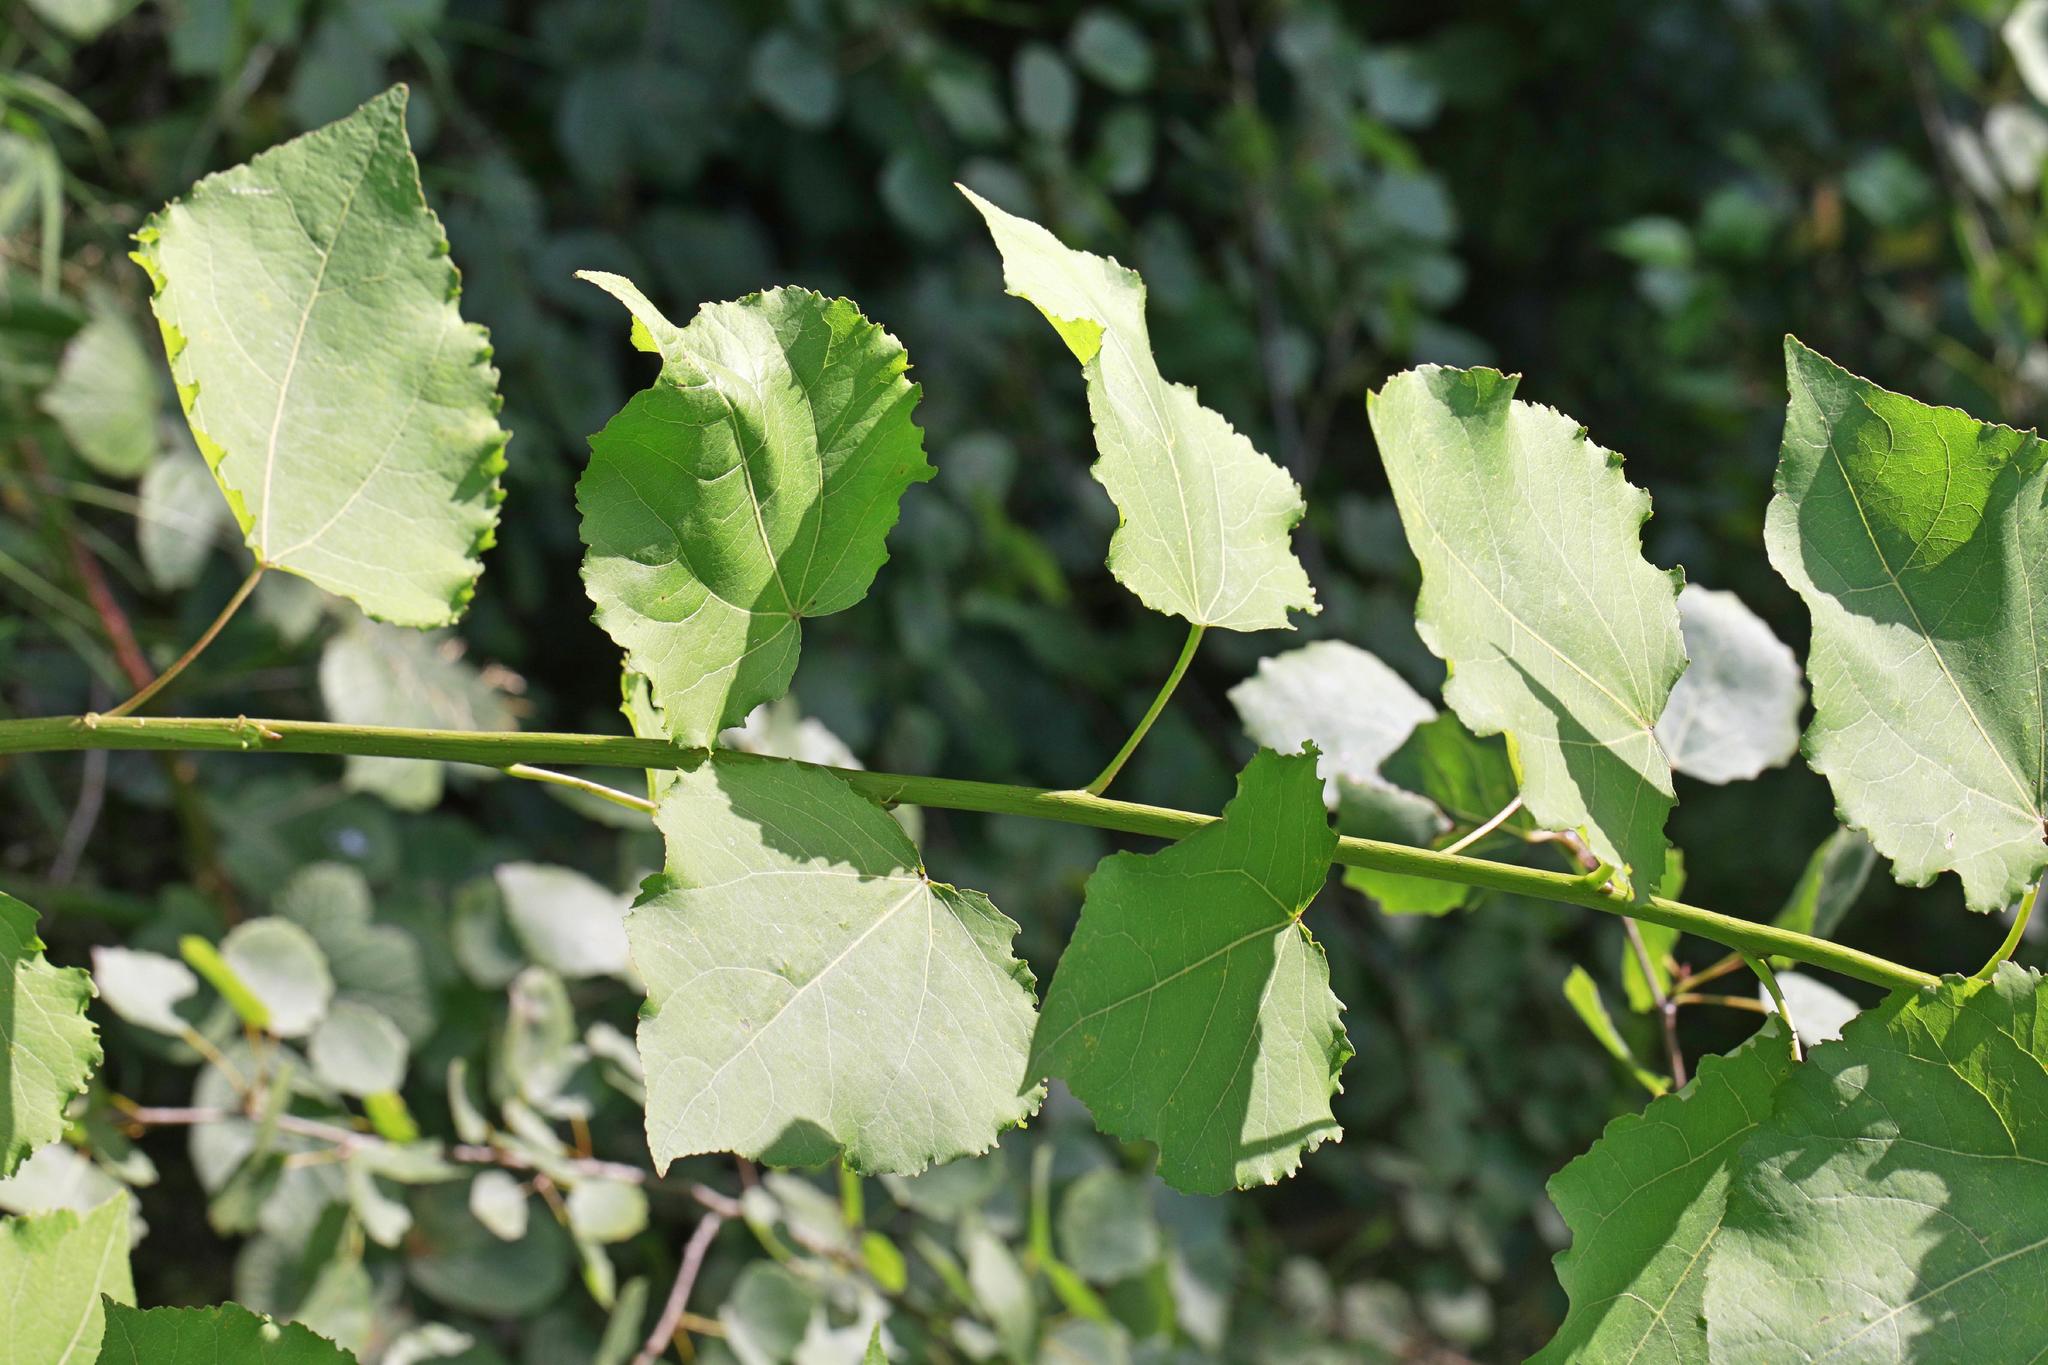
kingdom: Plantae
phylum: Tracheophyta
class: Magnoliopsida
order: Malpighiales
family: Salicaceae
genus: Populus
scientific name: Populus tremula
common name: European aspen
